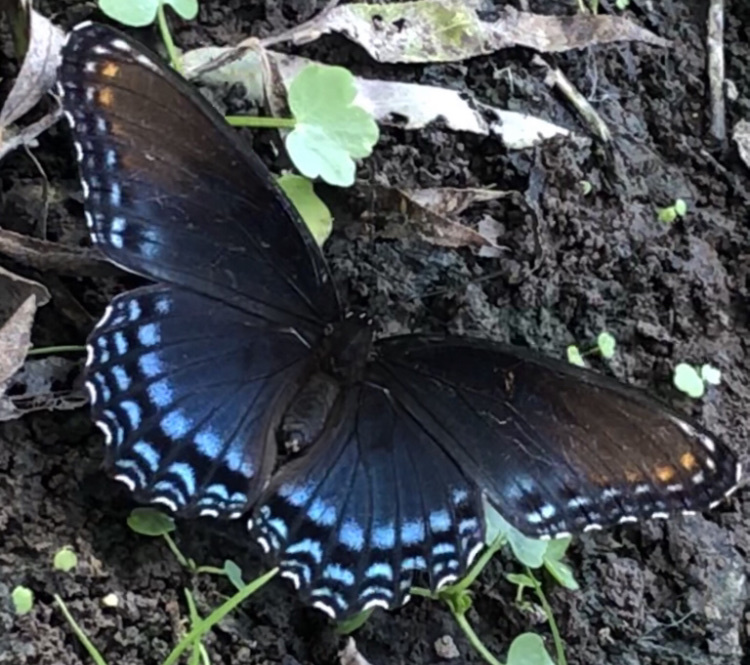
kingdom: Animalia
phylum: Arthropoda
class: Insecta
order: Lepidoptera
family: Nymphalidae
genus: Limenitis
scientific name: Limenitis astyanax
